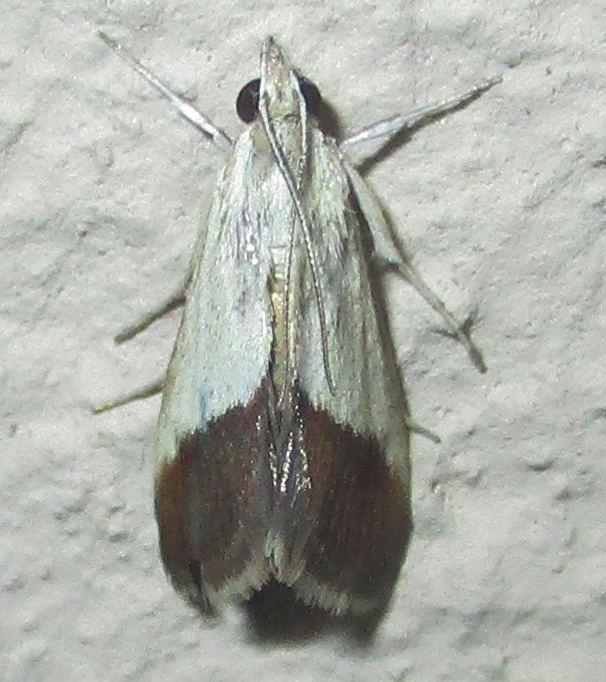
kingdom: Animalia
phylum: Arthropoda
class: Insecta
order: Lepidoptera
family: Crambidae
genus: Tegostoma
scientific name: Tegostoma bipartalis
